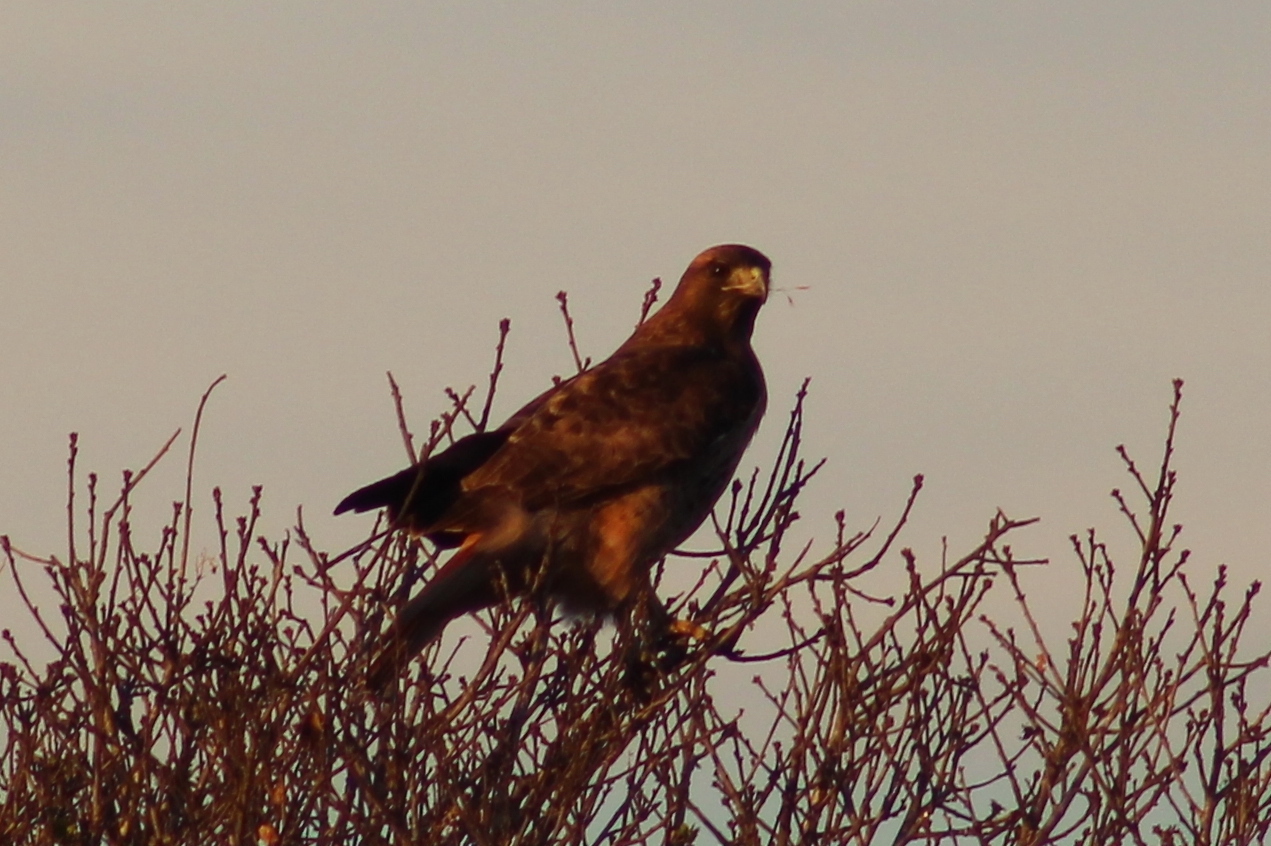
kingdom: Animalia
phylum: Chordata
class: Aves
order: Accipitriformes
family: Accipitridae
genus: Buteo
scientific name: Buteo jamaicensis
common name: Red-tailed hawk
